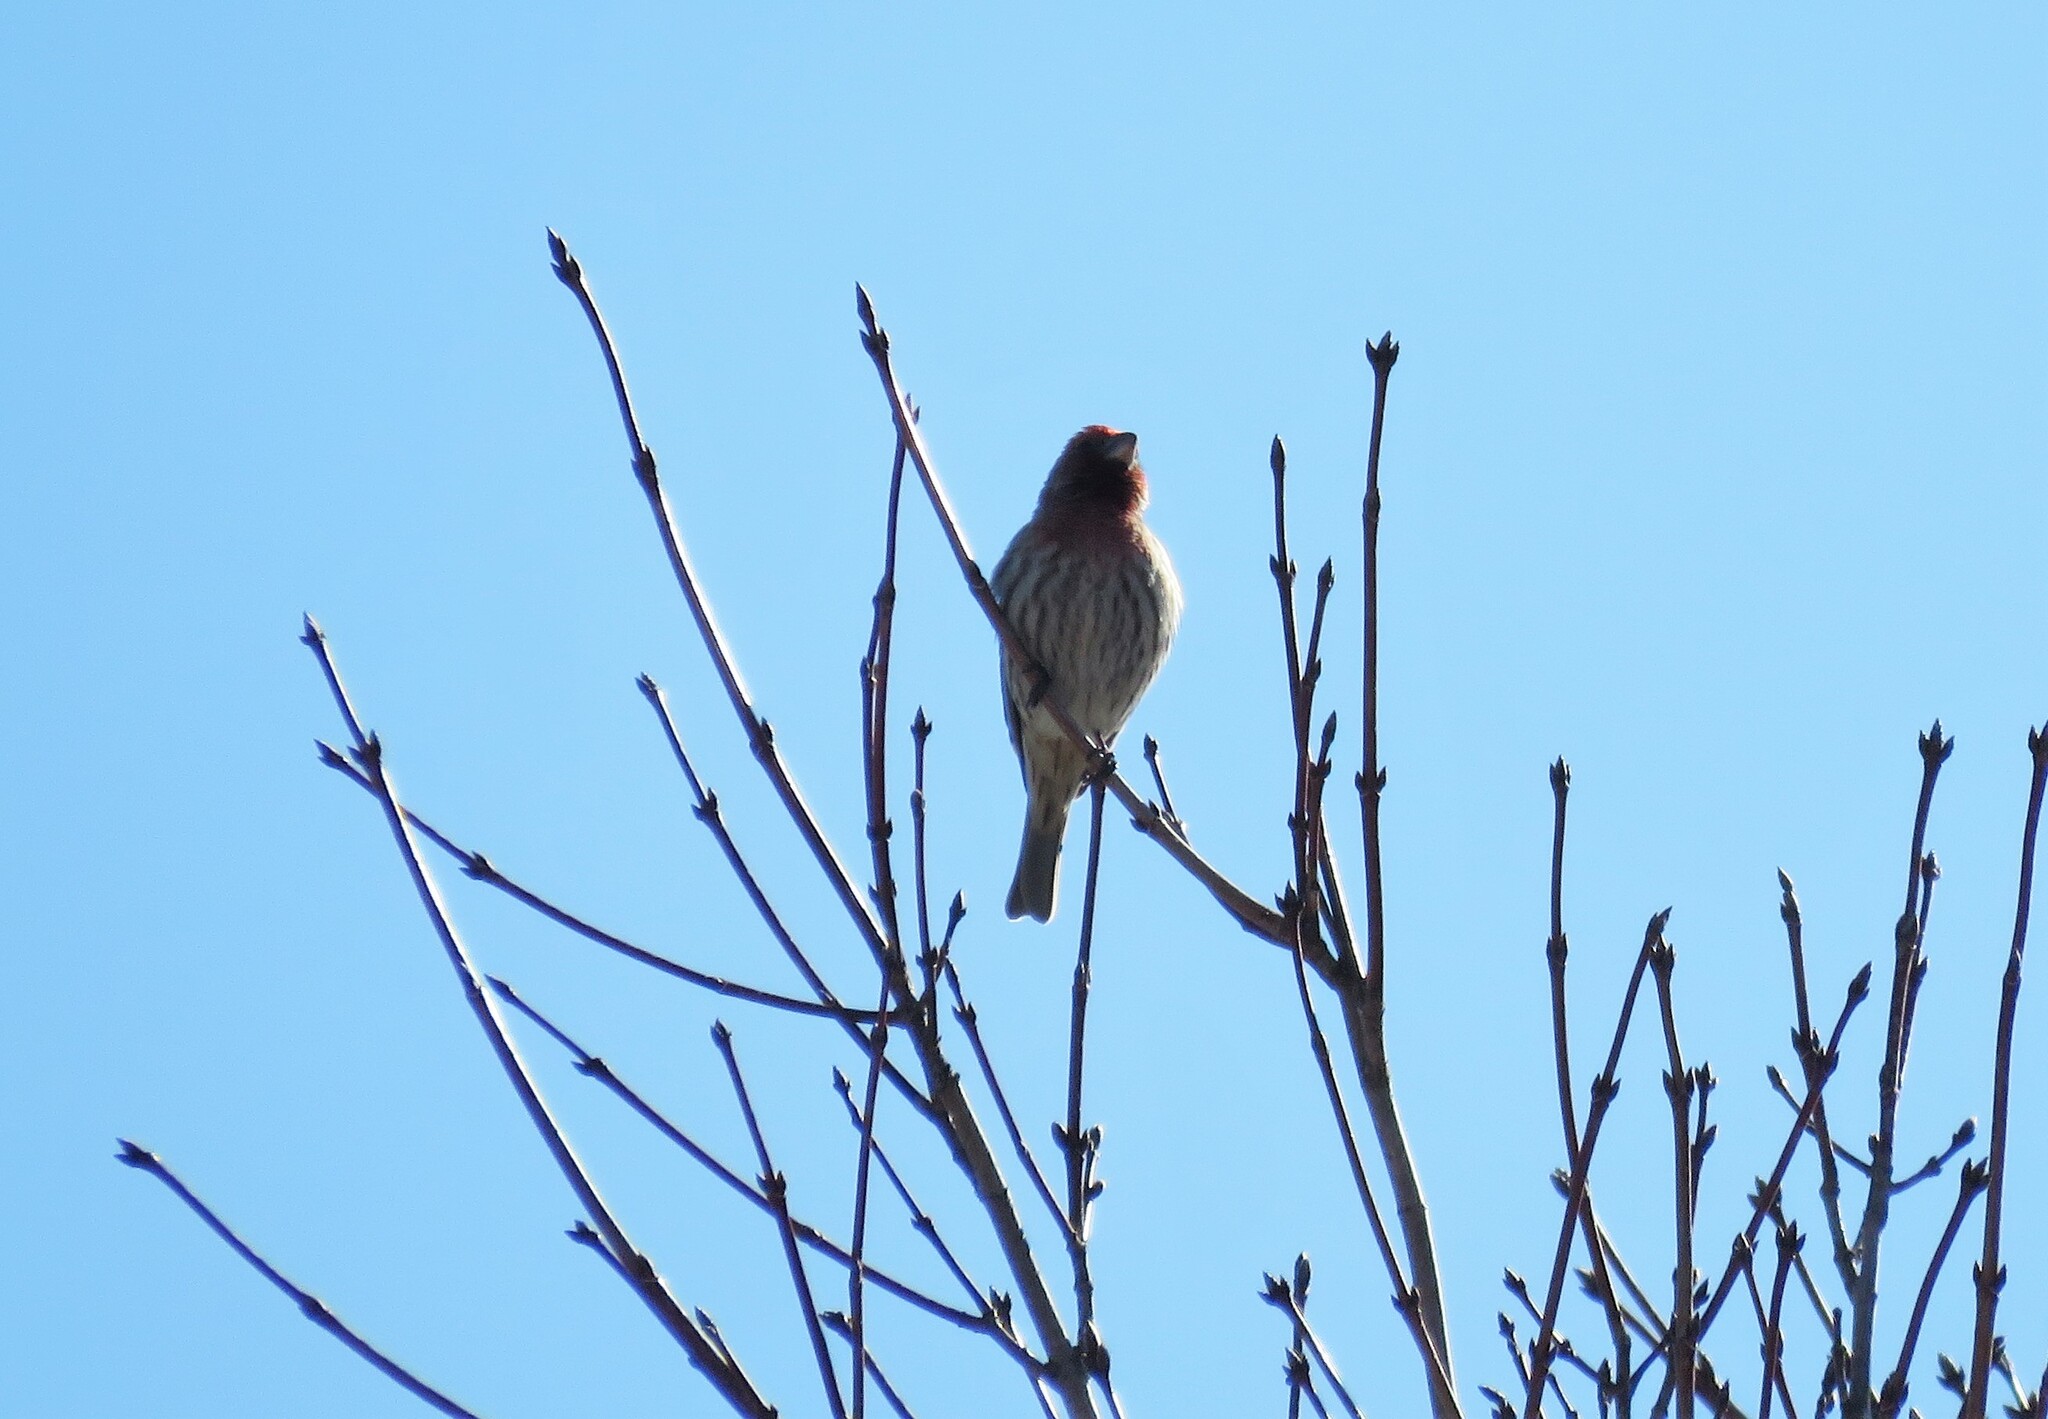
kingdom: Animalia
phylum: Chordata
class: Aves
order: Passeriformes
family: Fringillidae
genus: Haemorhous
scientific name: Haemorhous mexicanus
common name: House finch
